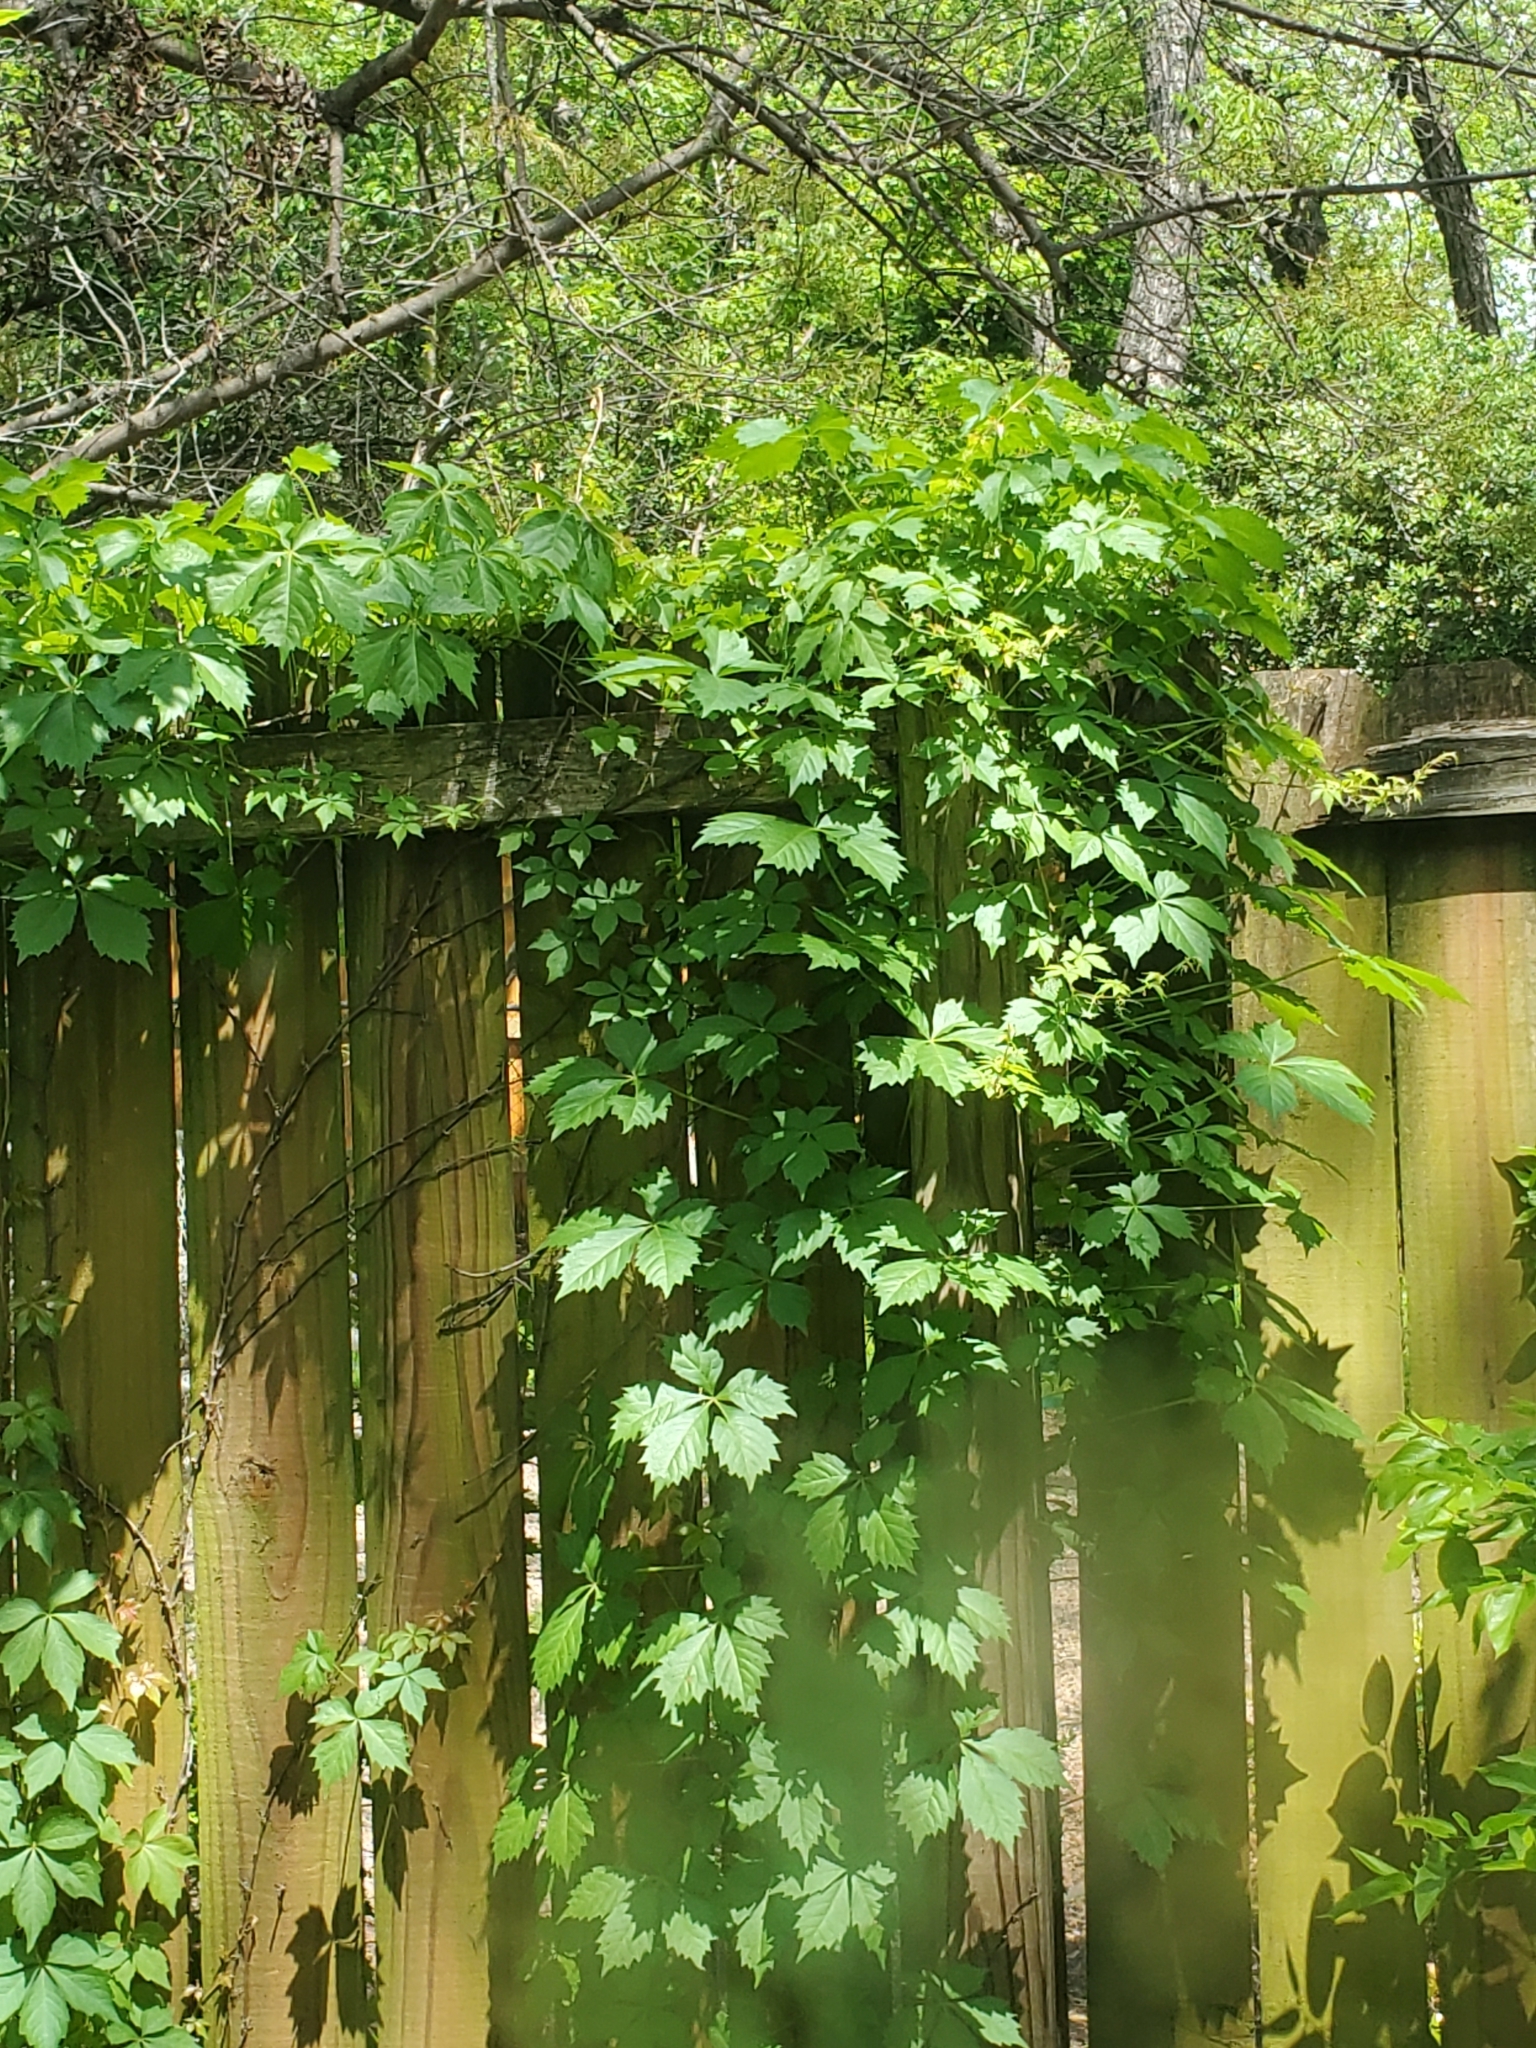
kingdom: Plantae
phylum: Tracheophyta
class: Magnoliopsida
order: Vitales
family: Vitaceae
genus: Parthenocissus
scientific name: Parthenocissus quinquefolia
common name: Virginia-creeper
